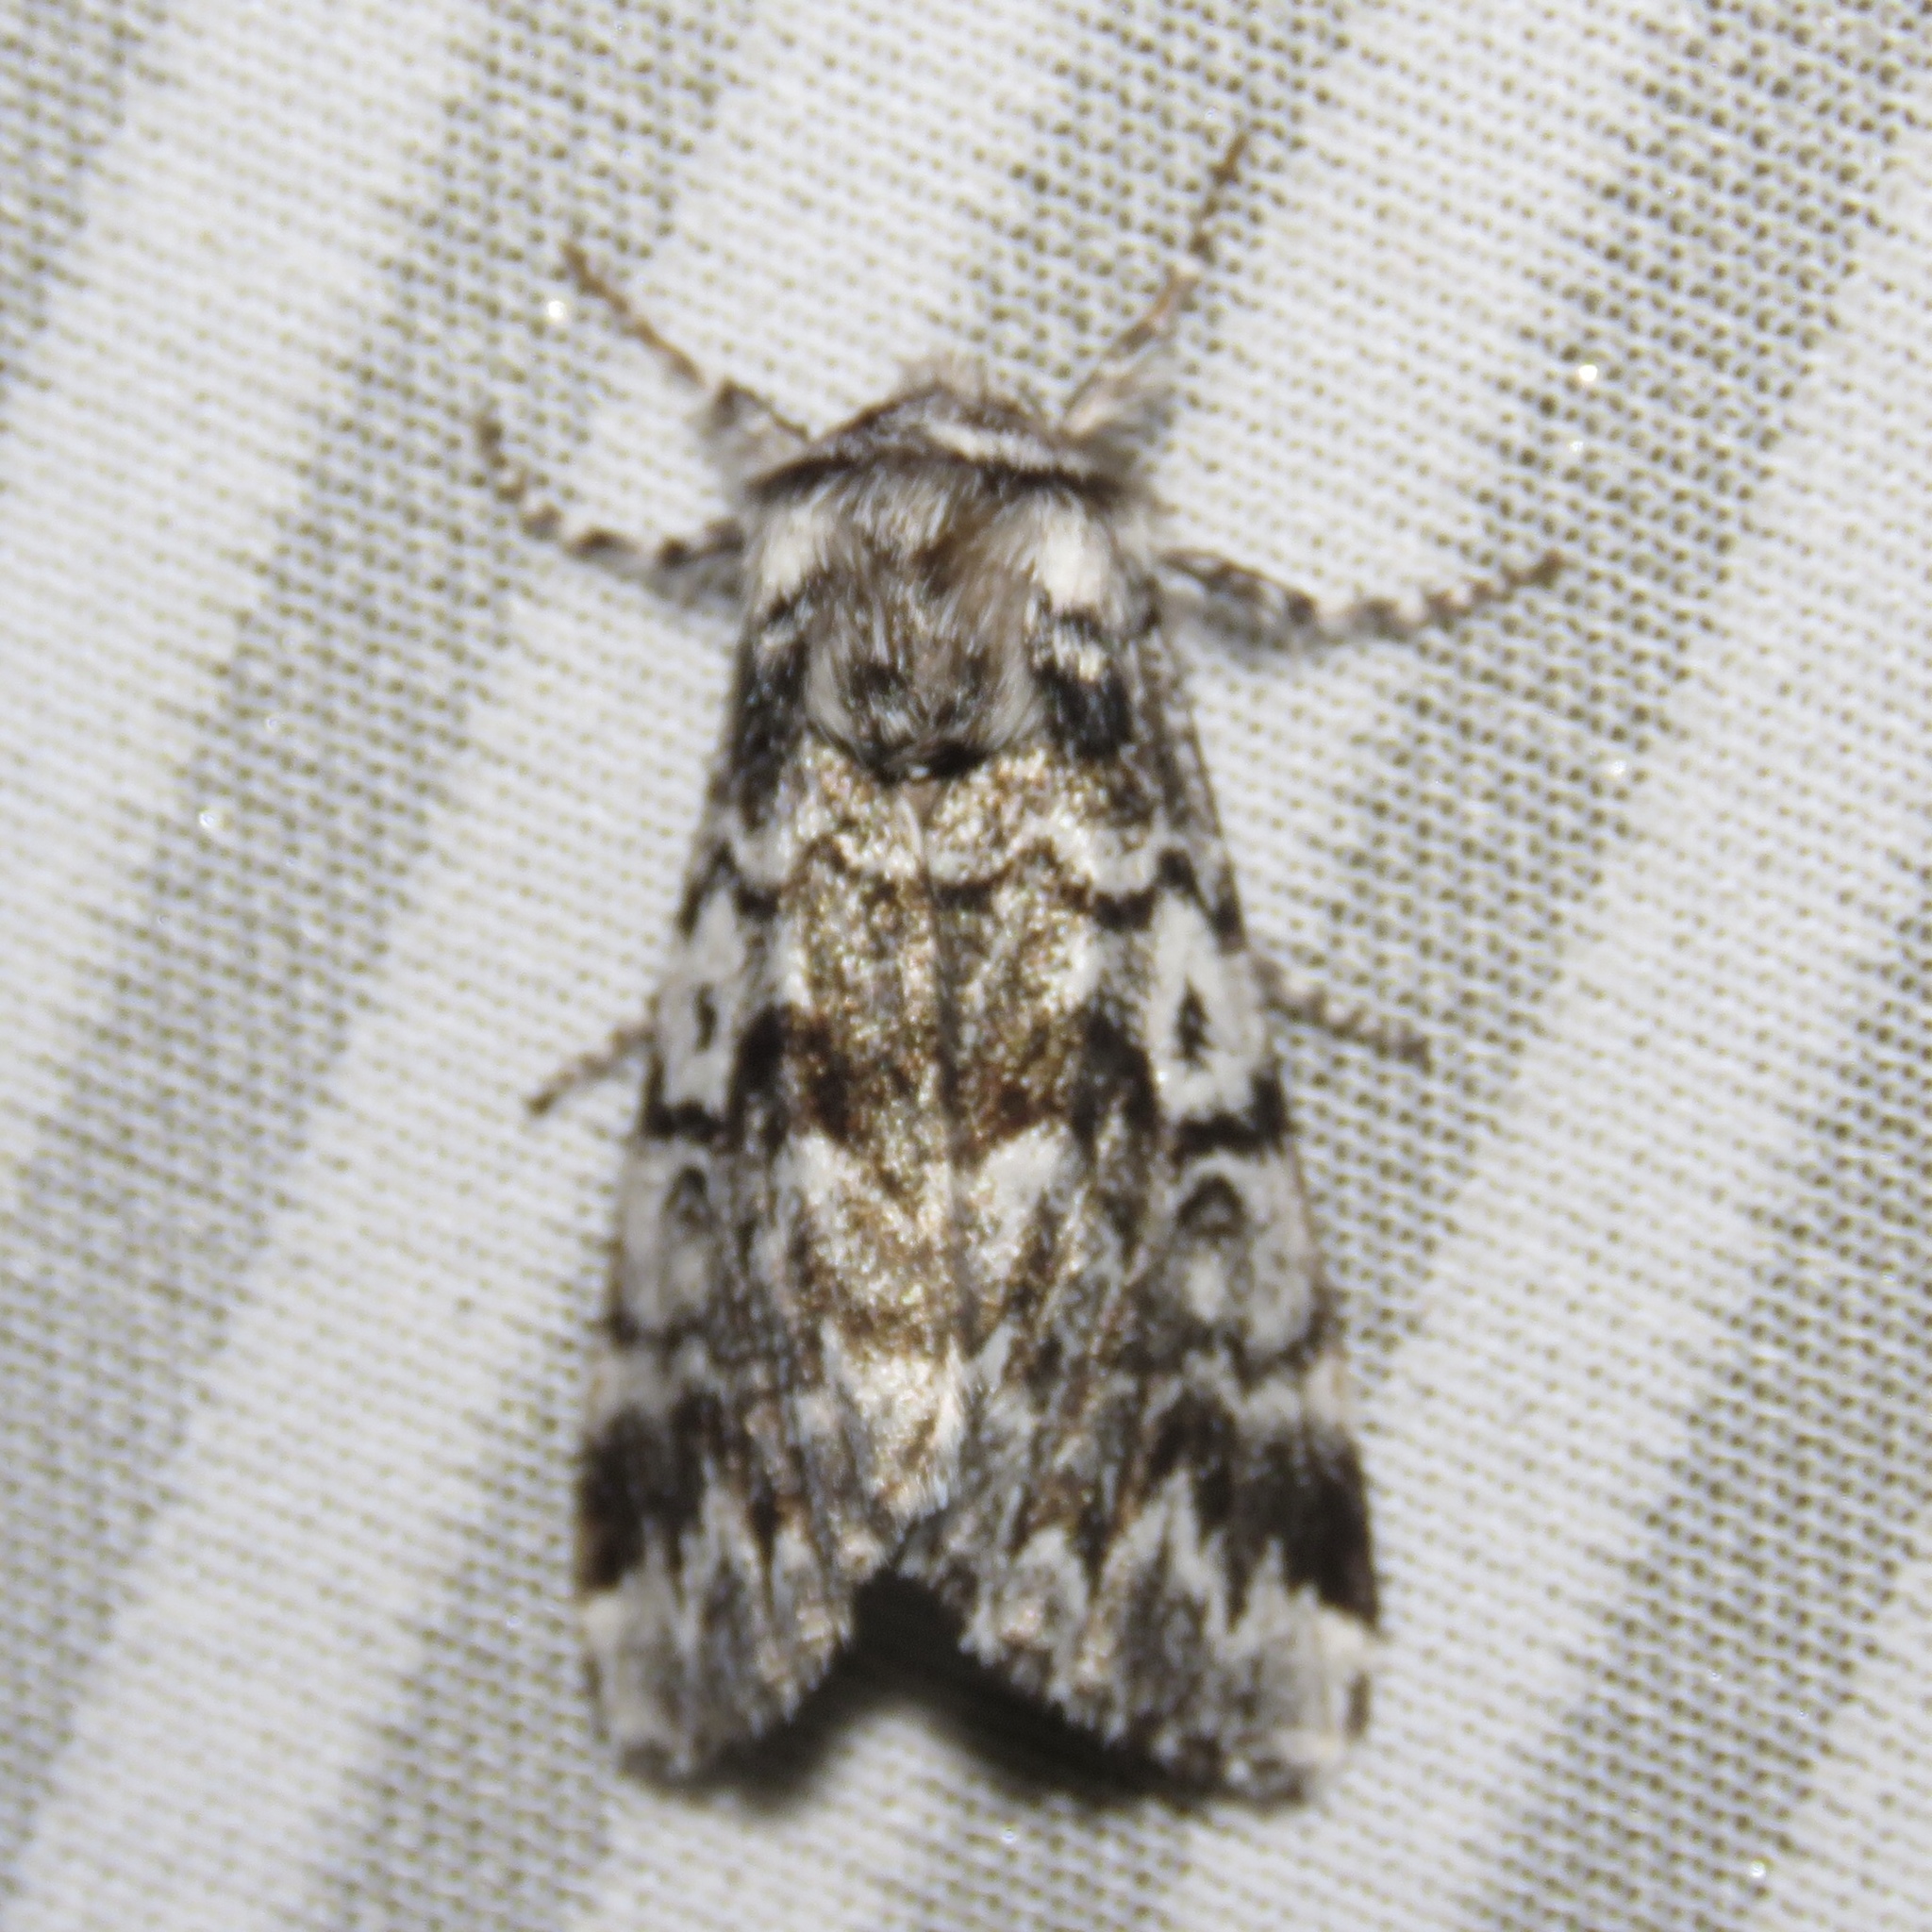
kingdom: Animalia
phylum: Arthropoda
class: Insecta
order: Lepidoptera
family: Noctuidae
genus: Panthea
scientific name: Panthea acronyctoides
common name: Black zigzag moth
